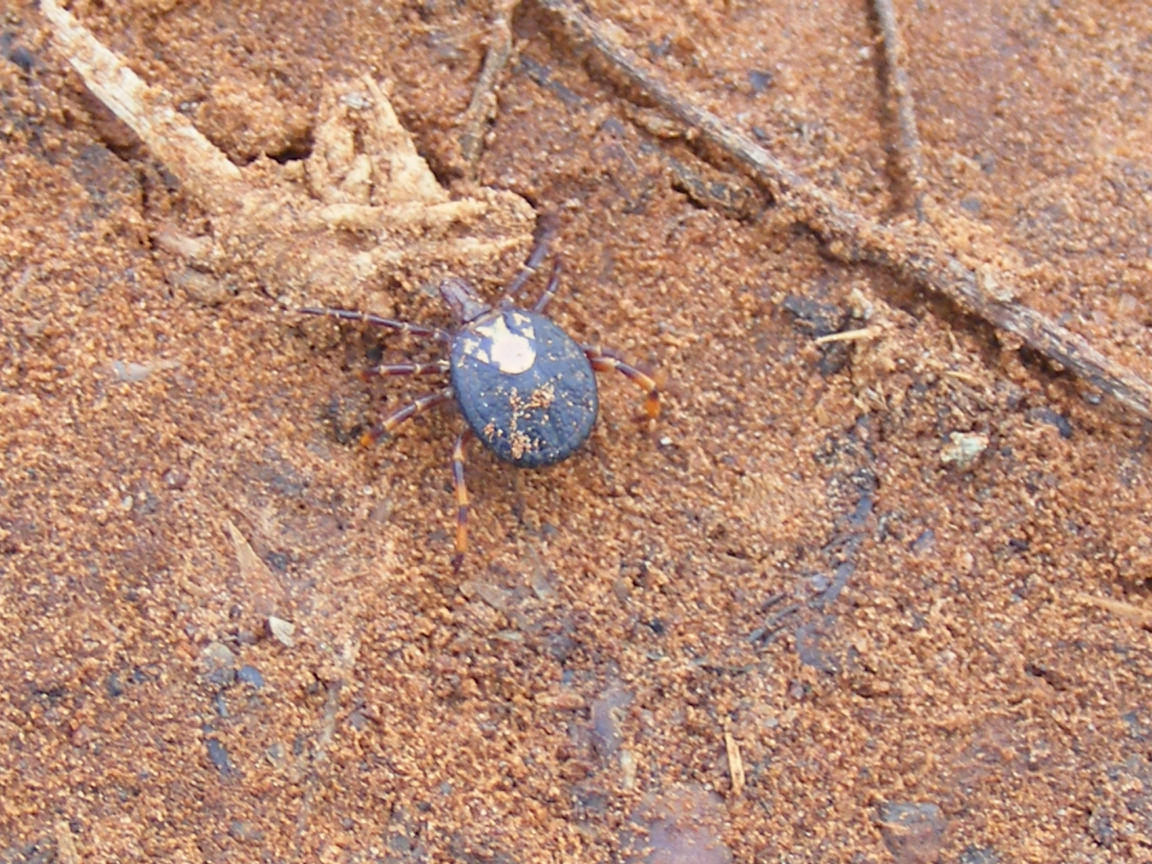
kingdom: Animalia
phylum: Arthropoda
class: Arachnida
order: Ixodida
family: Ixodidae
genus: Amblyomma
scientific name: Amblyomma hebraeum
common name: Bont tick
